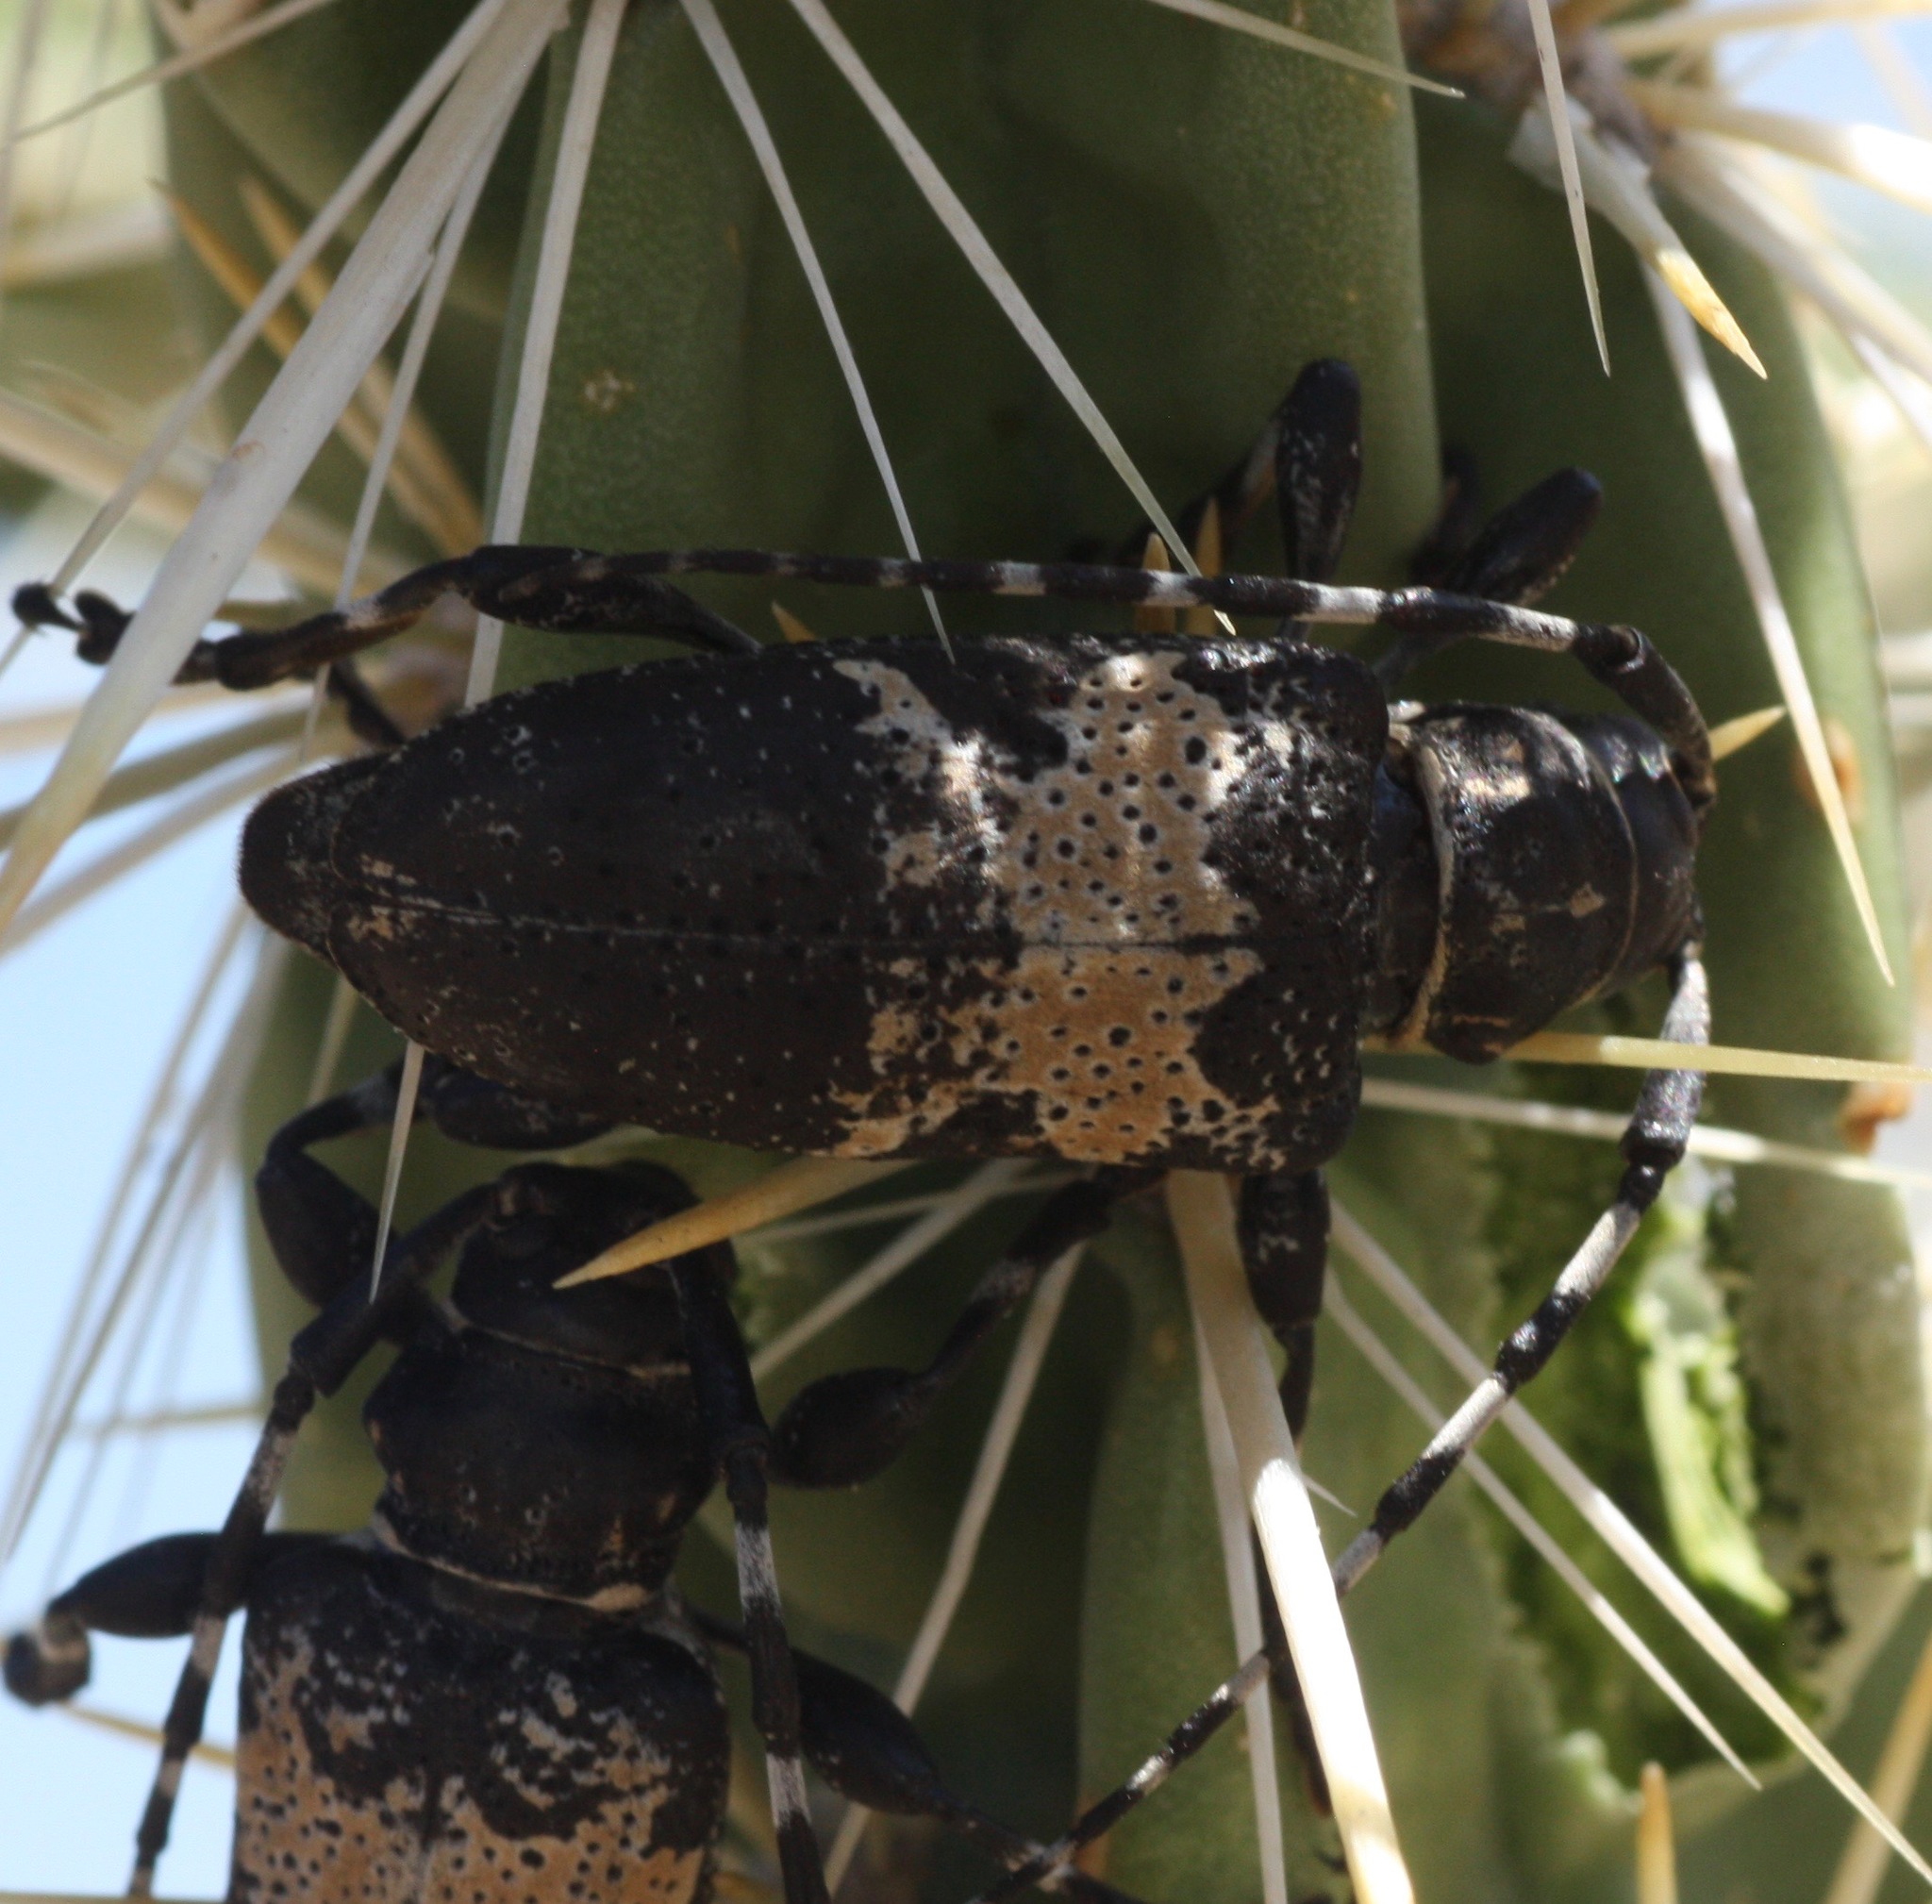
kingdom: Animalia
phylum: Arthropoda
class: Insecta
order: Coleoptera
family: Cerambycidae
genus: Coenopoeus
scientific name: Coenopoeus palmeri
